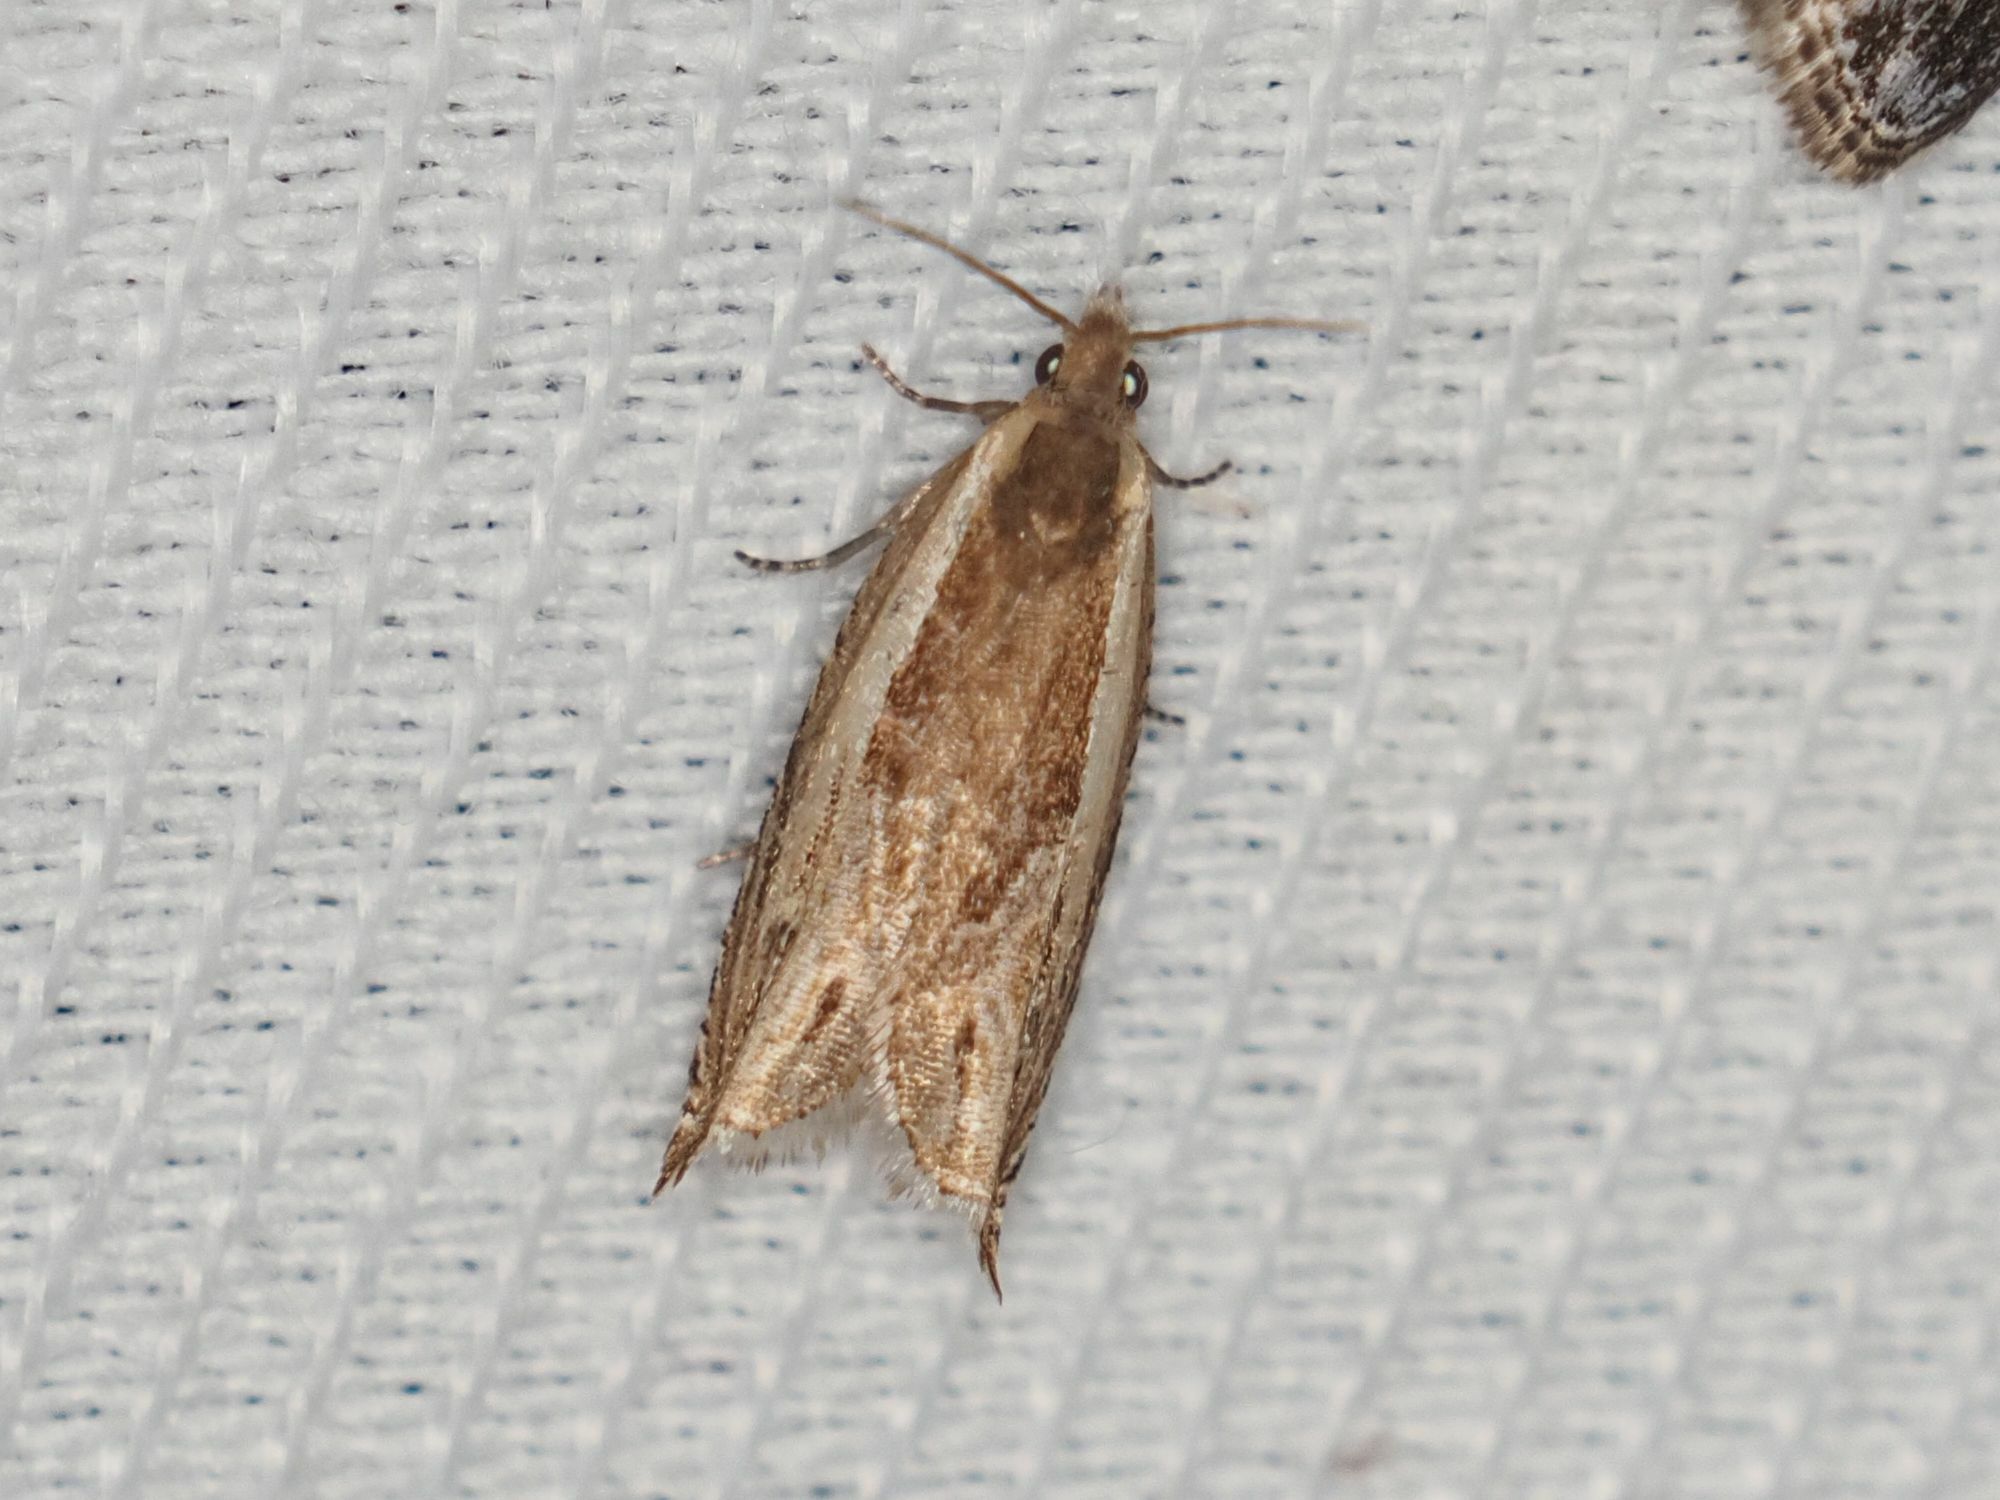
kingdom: Animalia
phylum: Arthropoda
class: Insecta
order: Lepidoptera
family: Tortricidae
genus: Ancylis
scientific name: Ancylis apicella
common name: Hook-tipped roller
